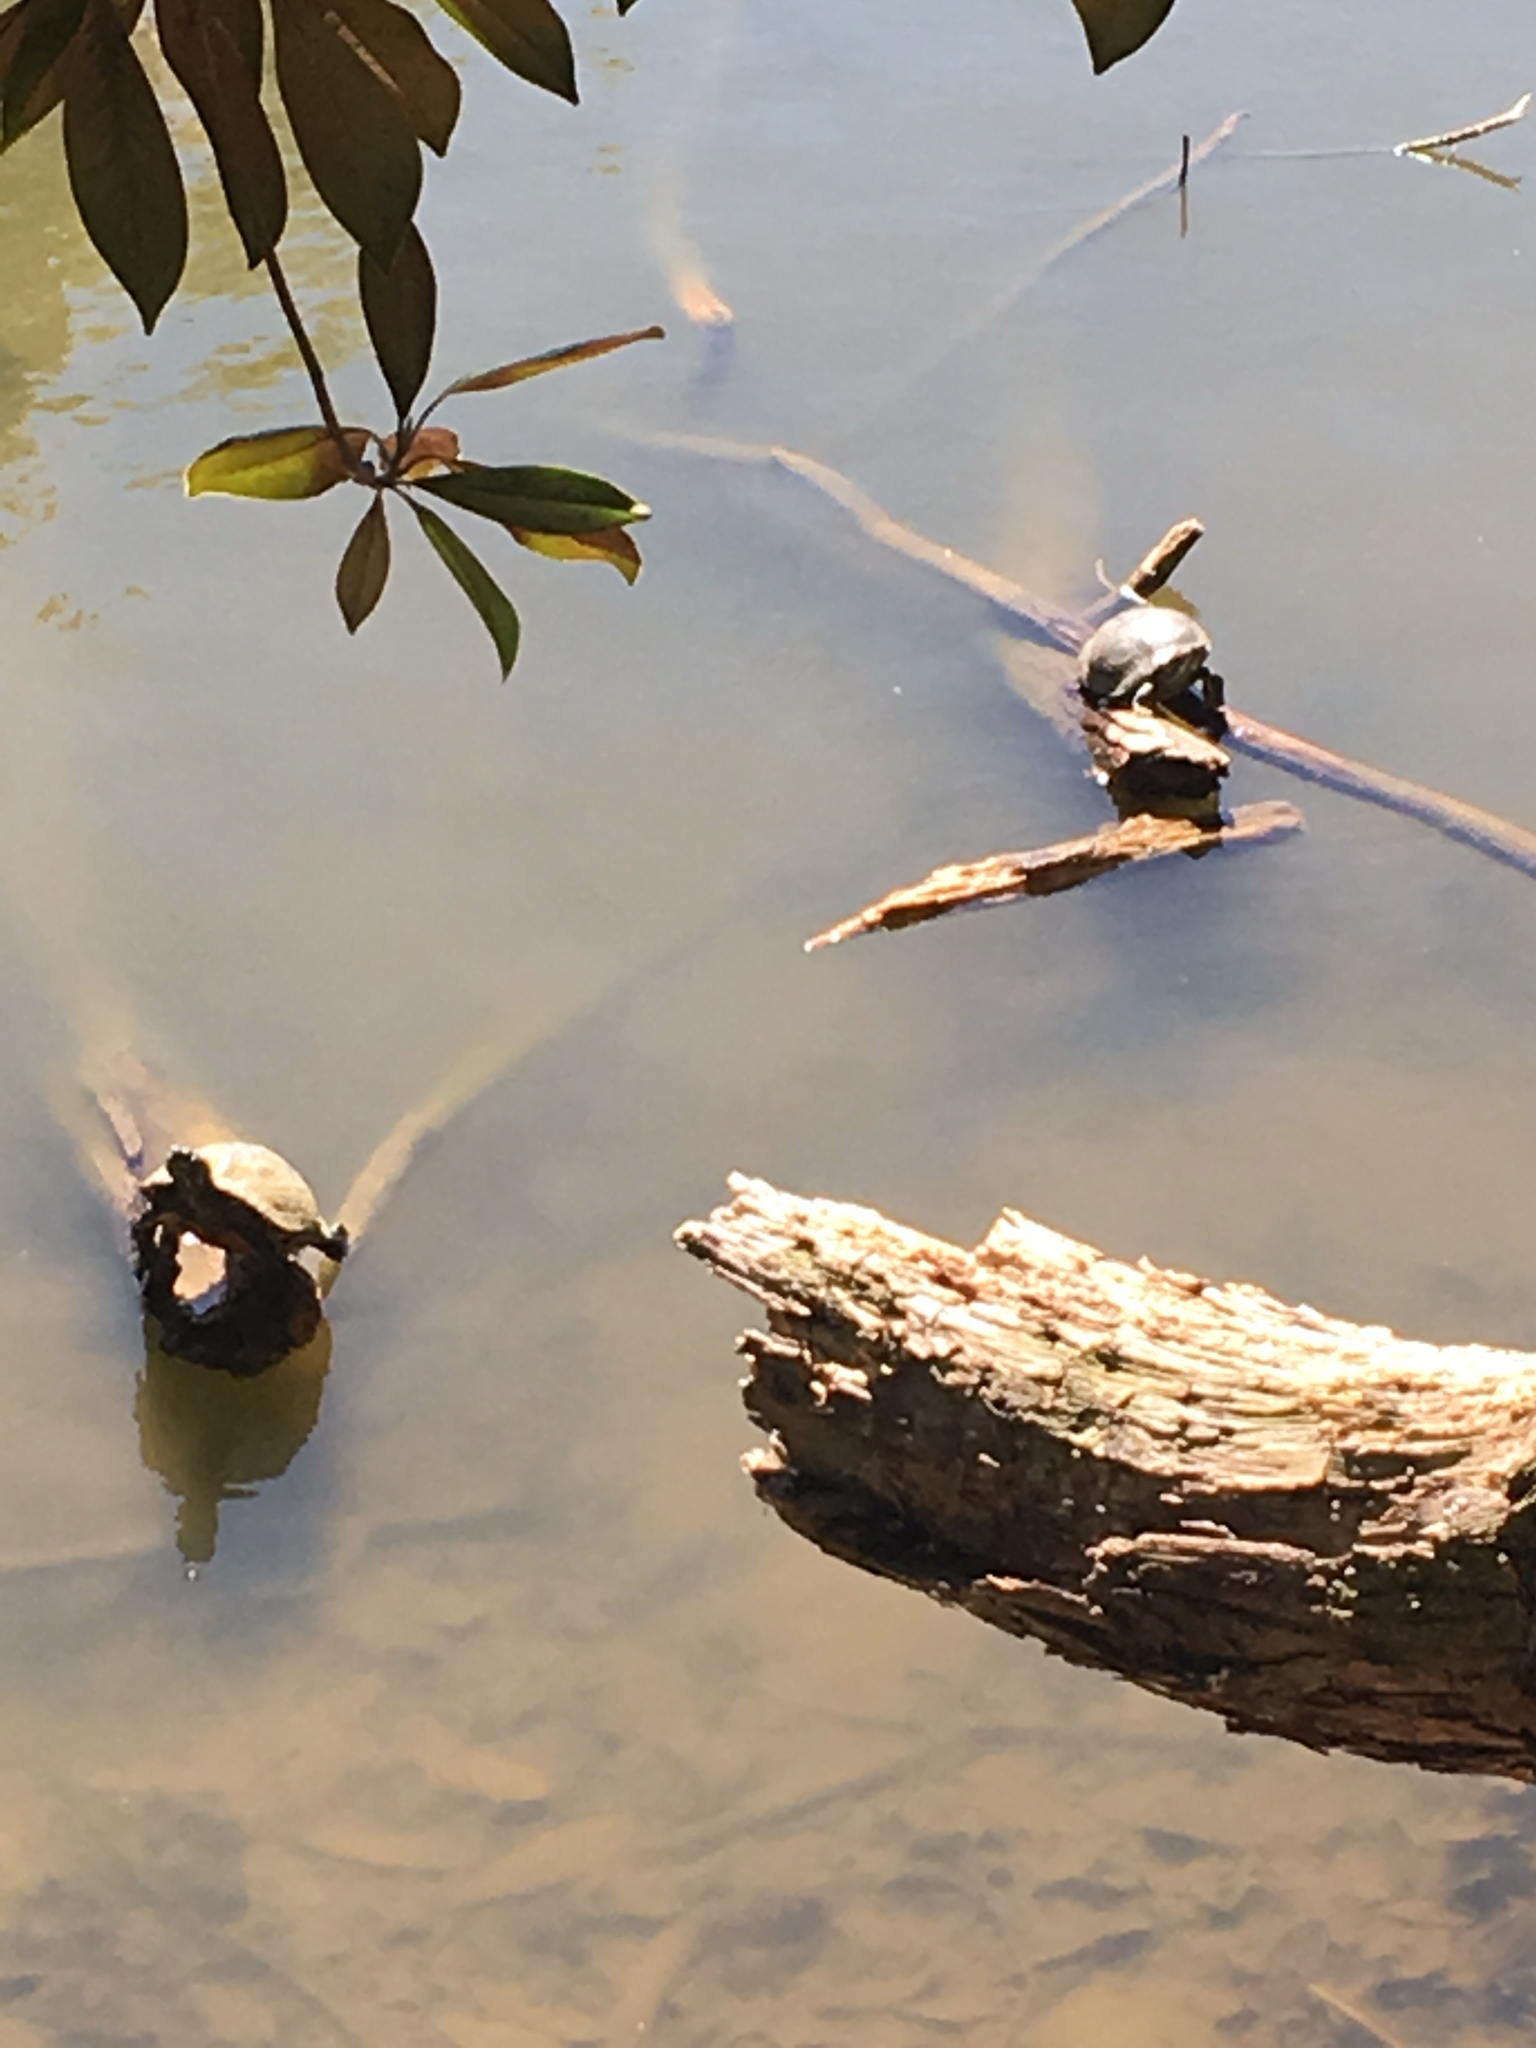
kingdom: Animalia
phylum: Chordata
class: Testudines
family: Emydidae
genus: Trachemys
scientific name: Trachemys scripta
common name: Slider
